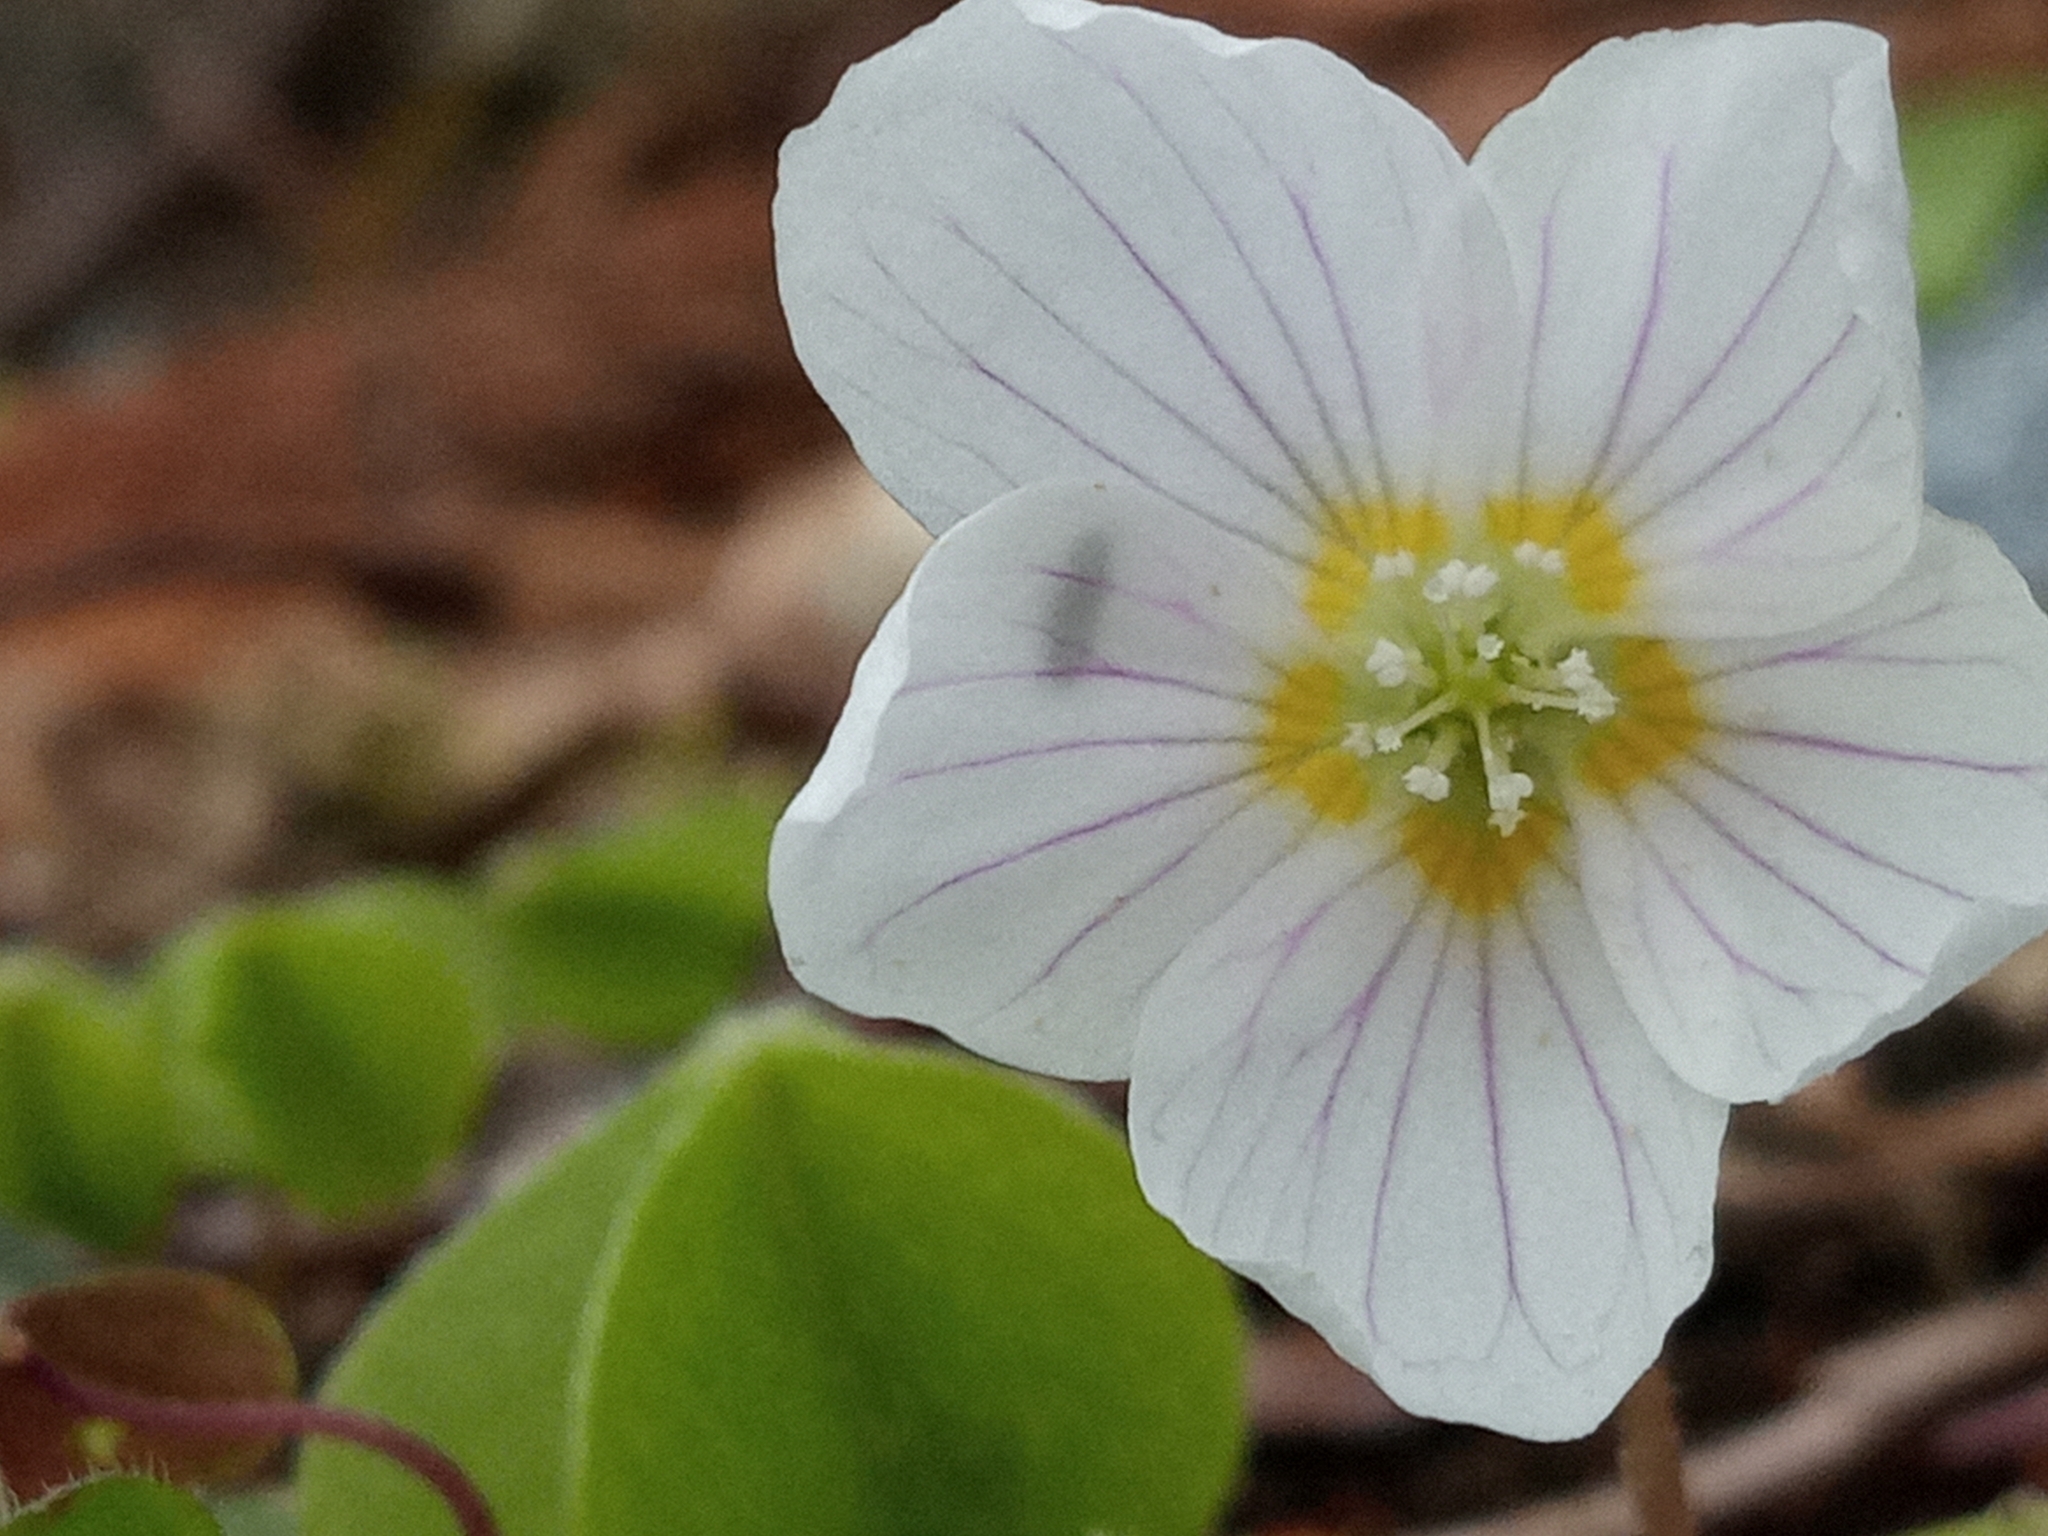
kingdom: Plantae
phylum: Tracheophyta
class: Magnoliopsida
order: Oxalidales
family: Oxalidaceae
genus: Oxalis
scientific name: Oxalis acetosella
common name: Wood-sorrel
